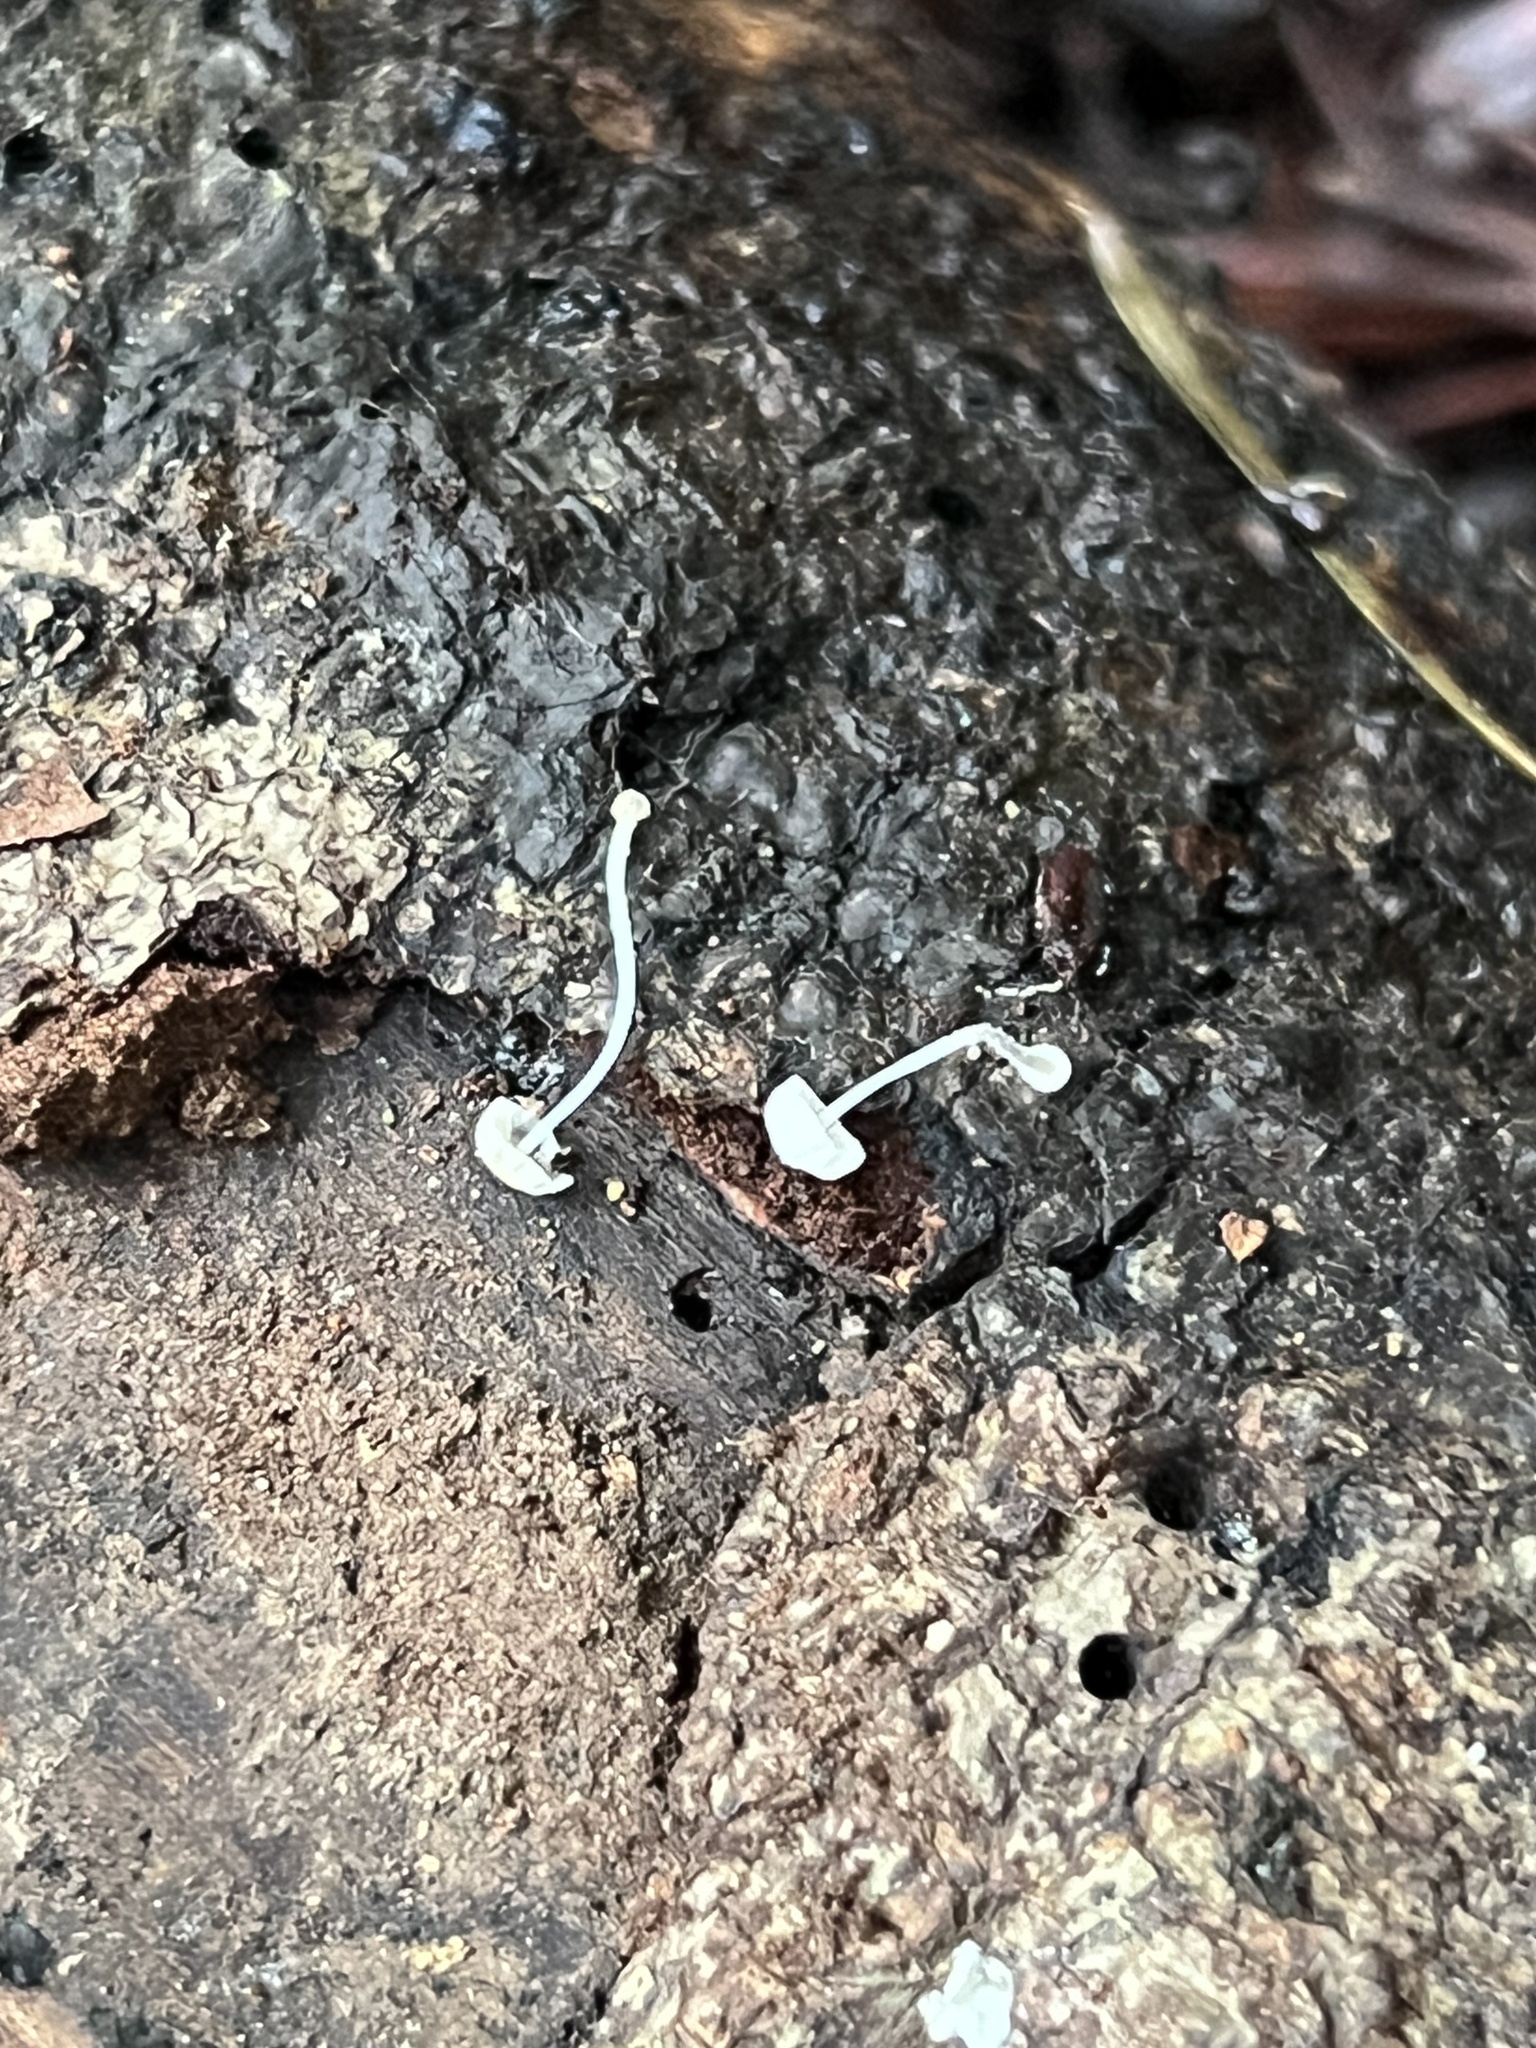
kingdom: Fungi
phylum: Basidiomycota
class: Agaricomycetes
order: Agaricales
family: Mycenaceae
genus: Mycena
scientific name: Mycena tenerrima
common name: Frosty bonnet
